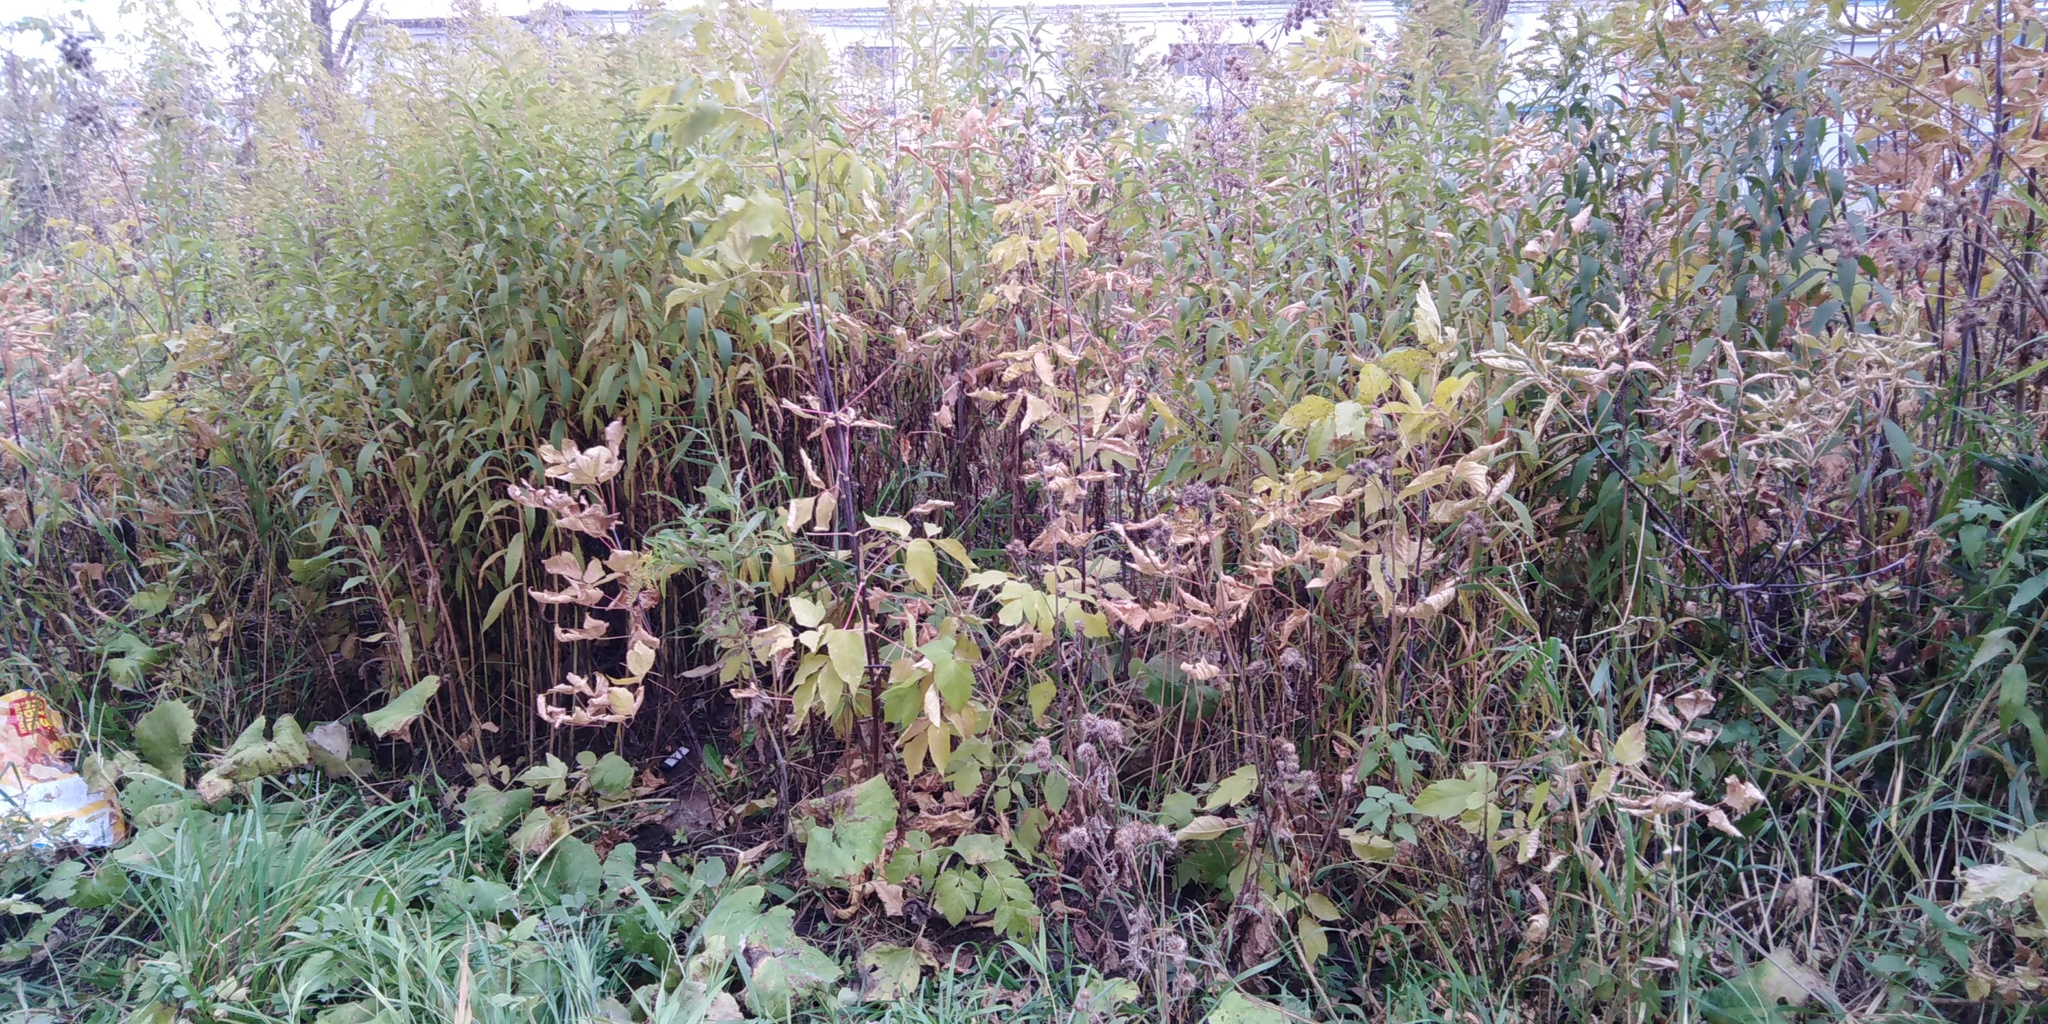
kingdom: Plantae
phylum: Tracheophyta
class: Magnoliopsida
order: Sapindales
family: Sapindaceae
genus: Acer
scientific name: Acer negundo
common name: Ashleaf maple
